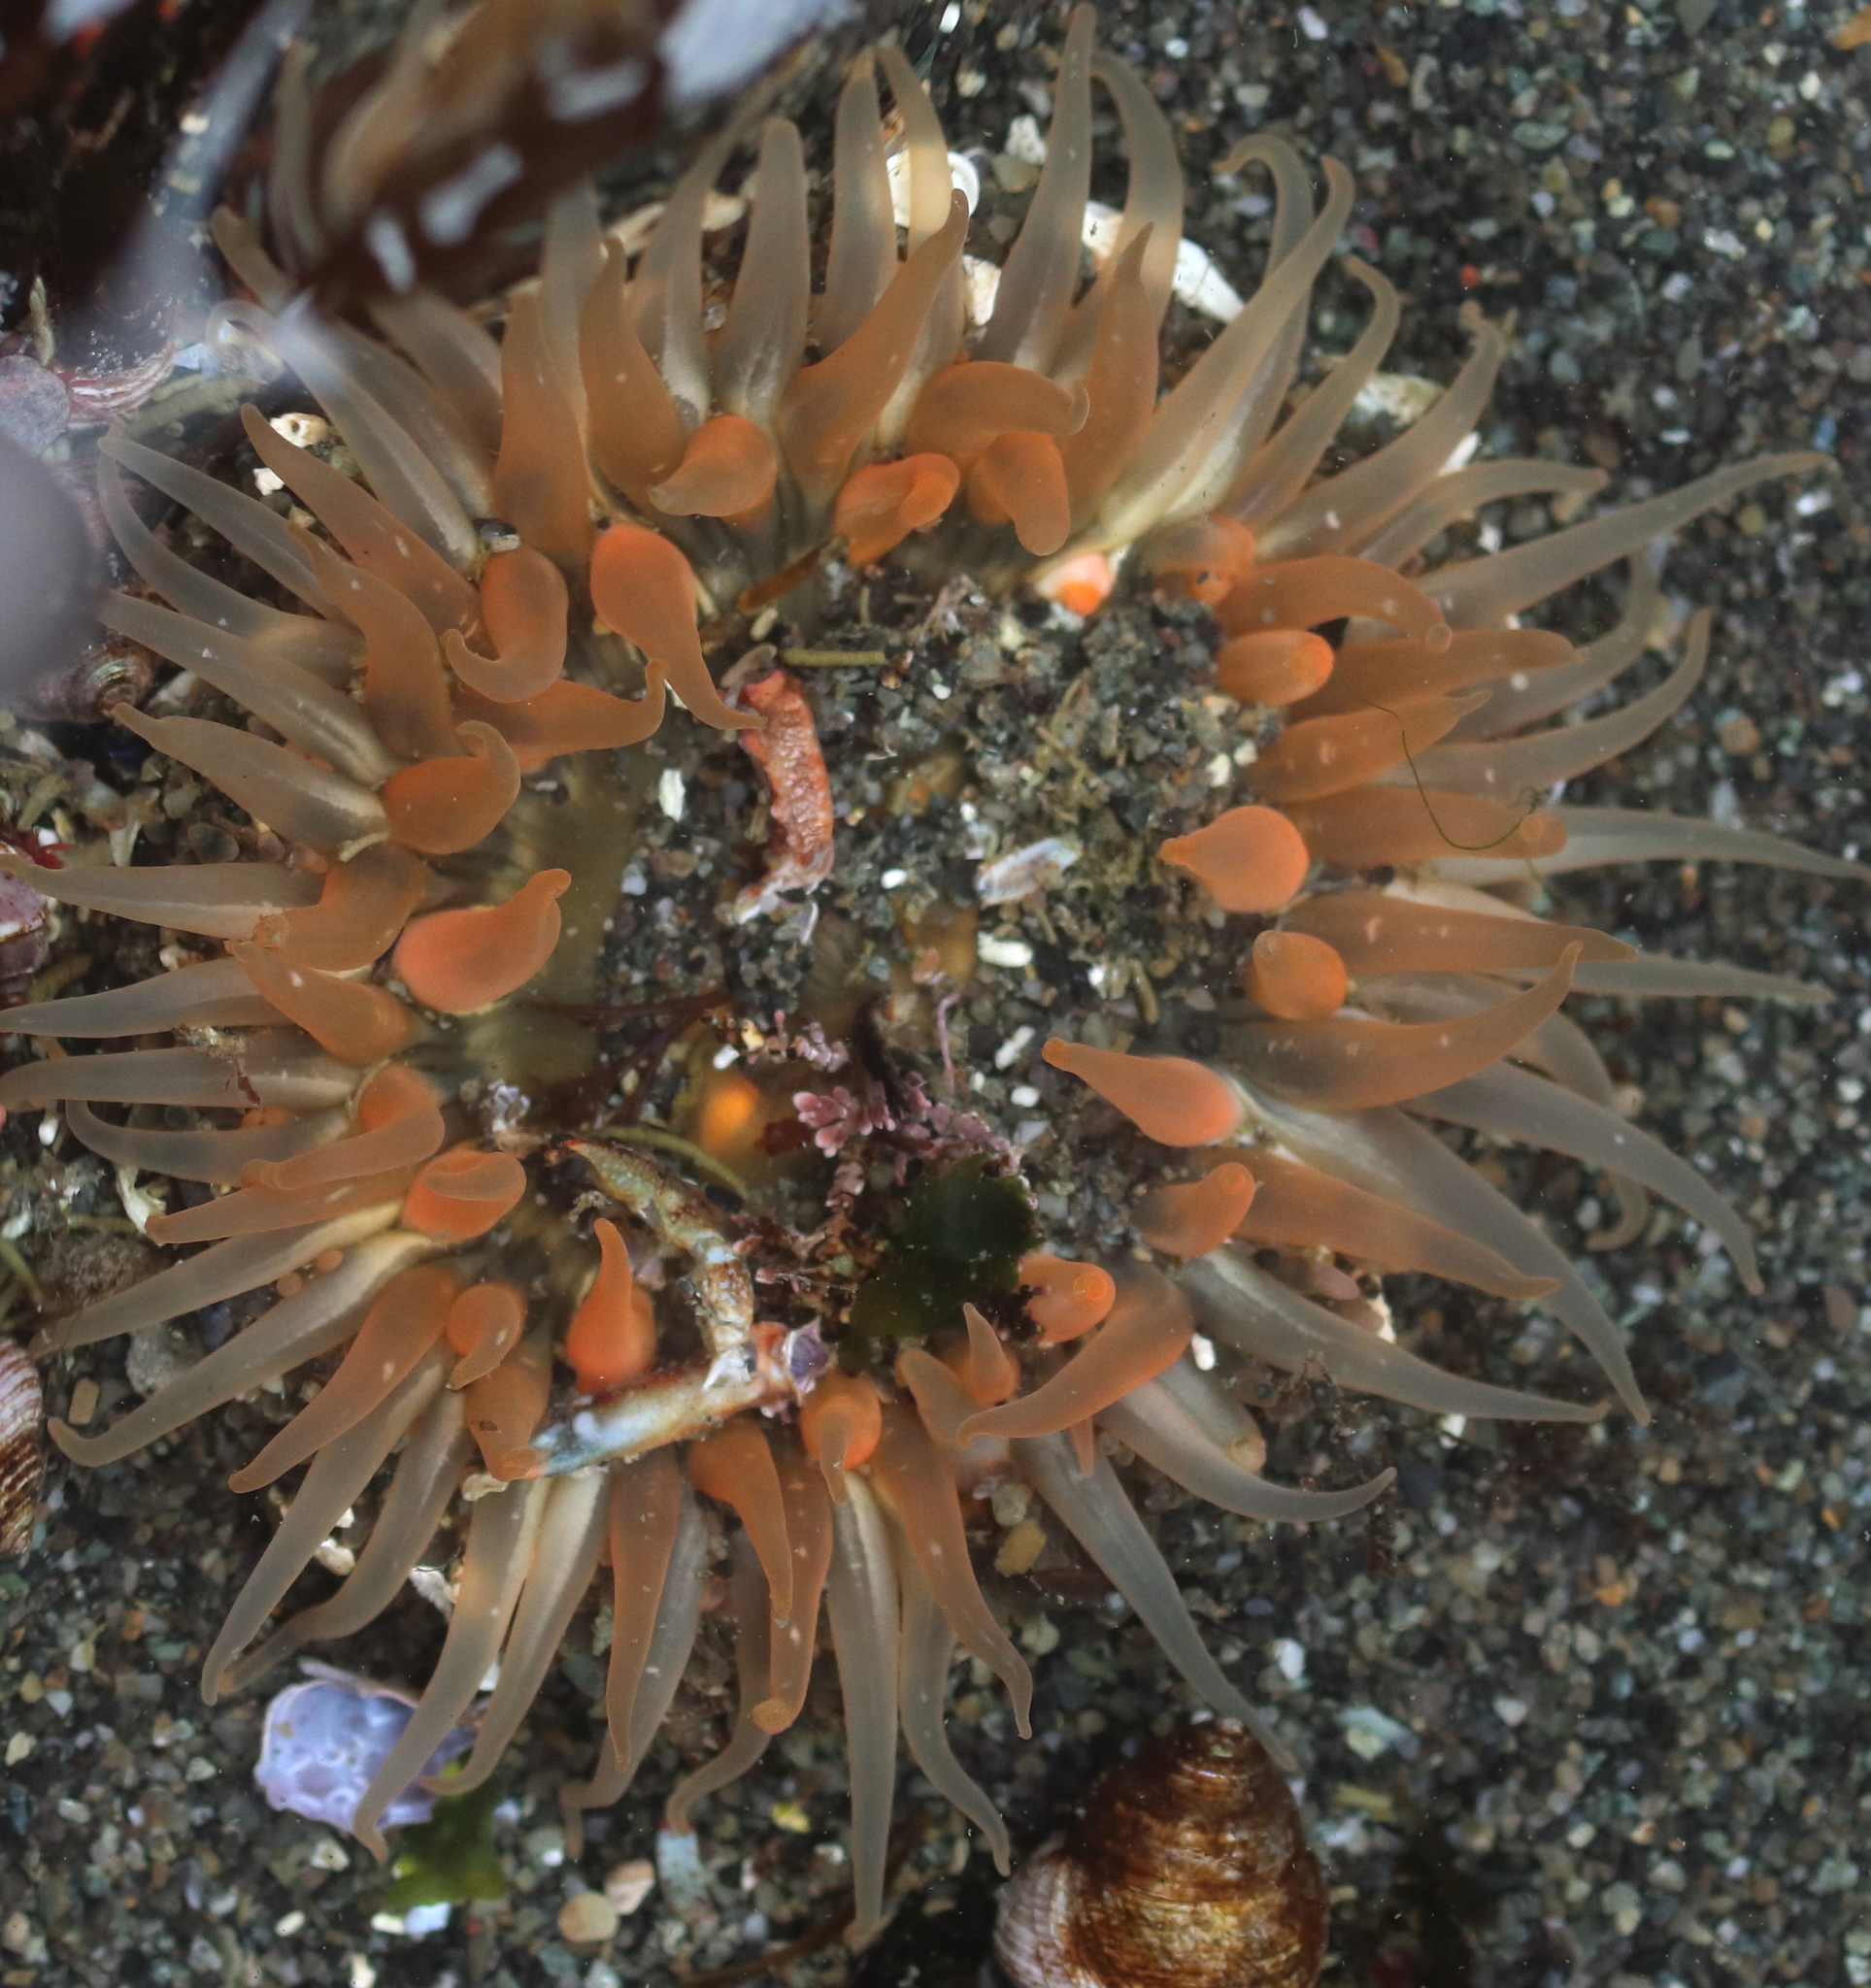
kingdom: Animalia
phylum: Cnidaria
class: Anthozoa
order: Actiniaria
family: Actiniidae
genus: Anthopleura
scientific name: Anthopleura artemisia
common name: Buried sea anemone
